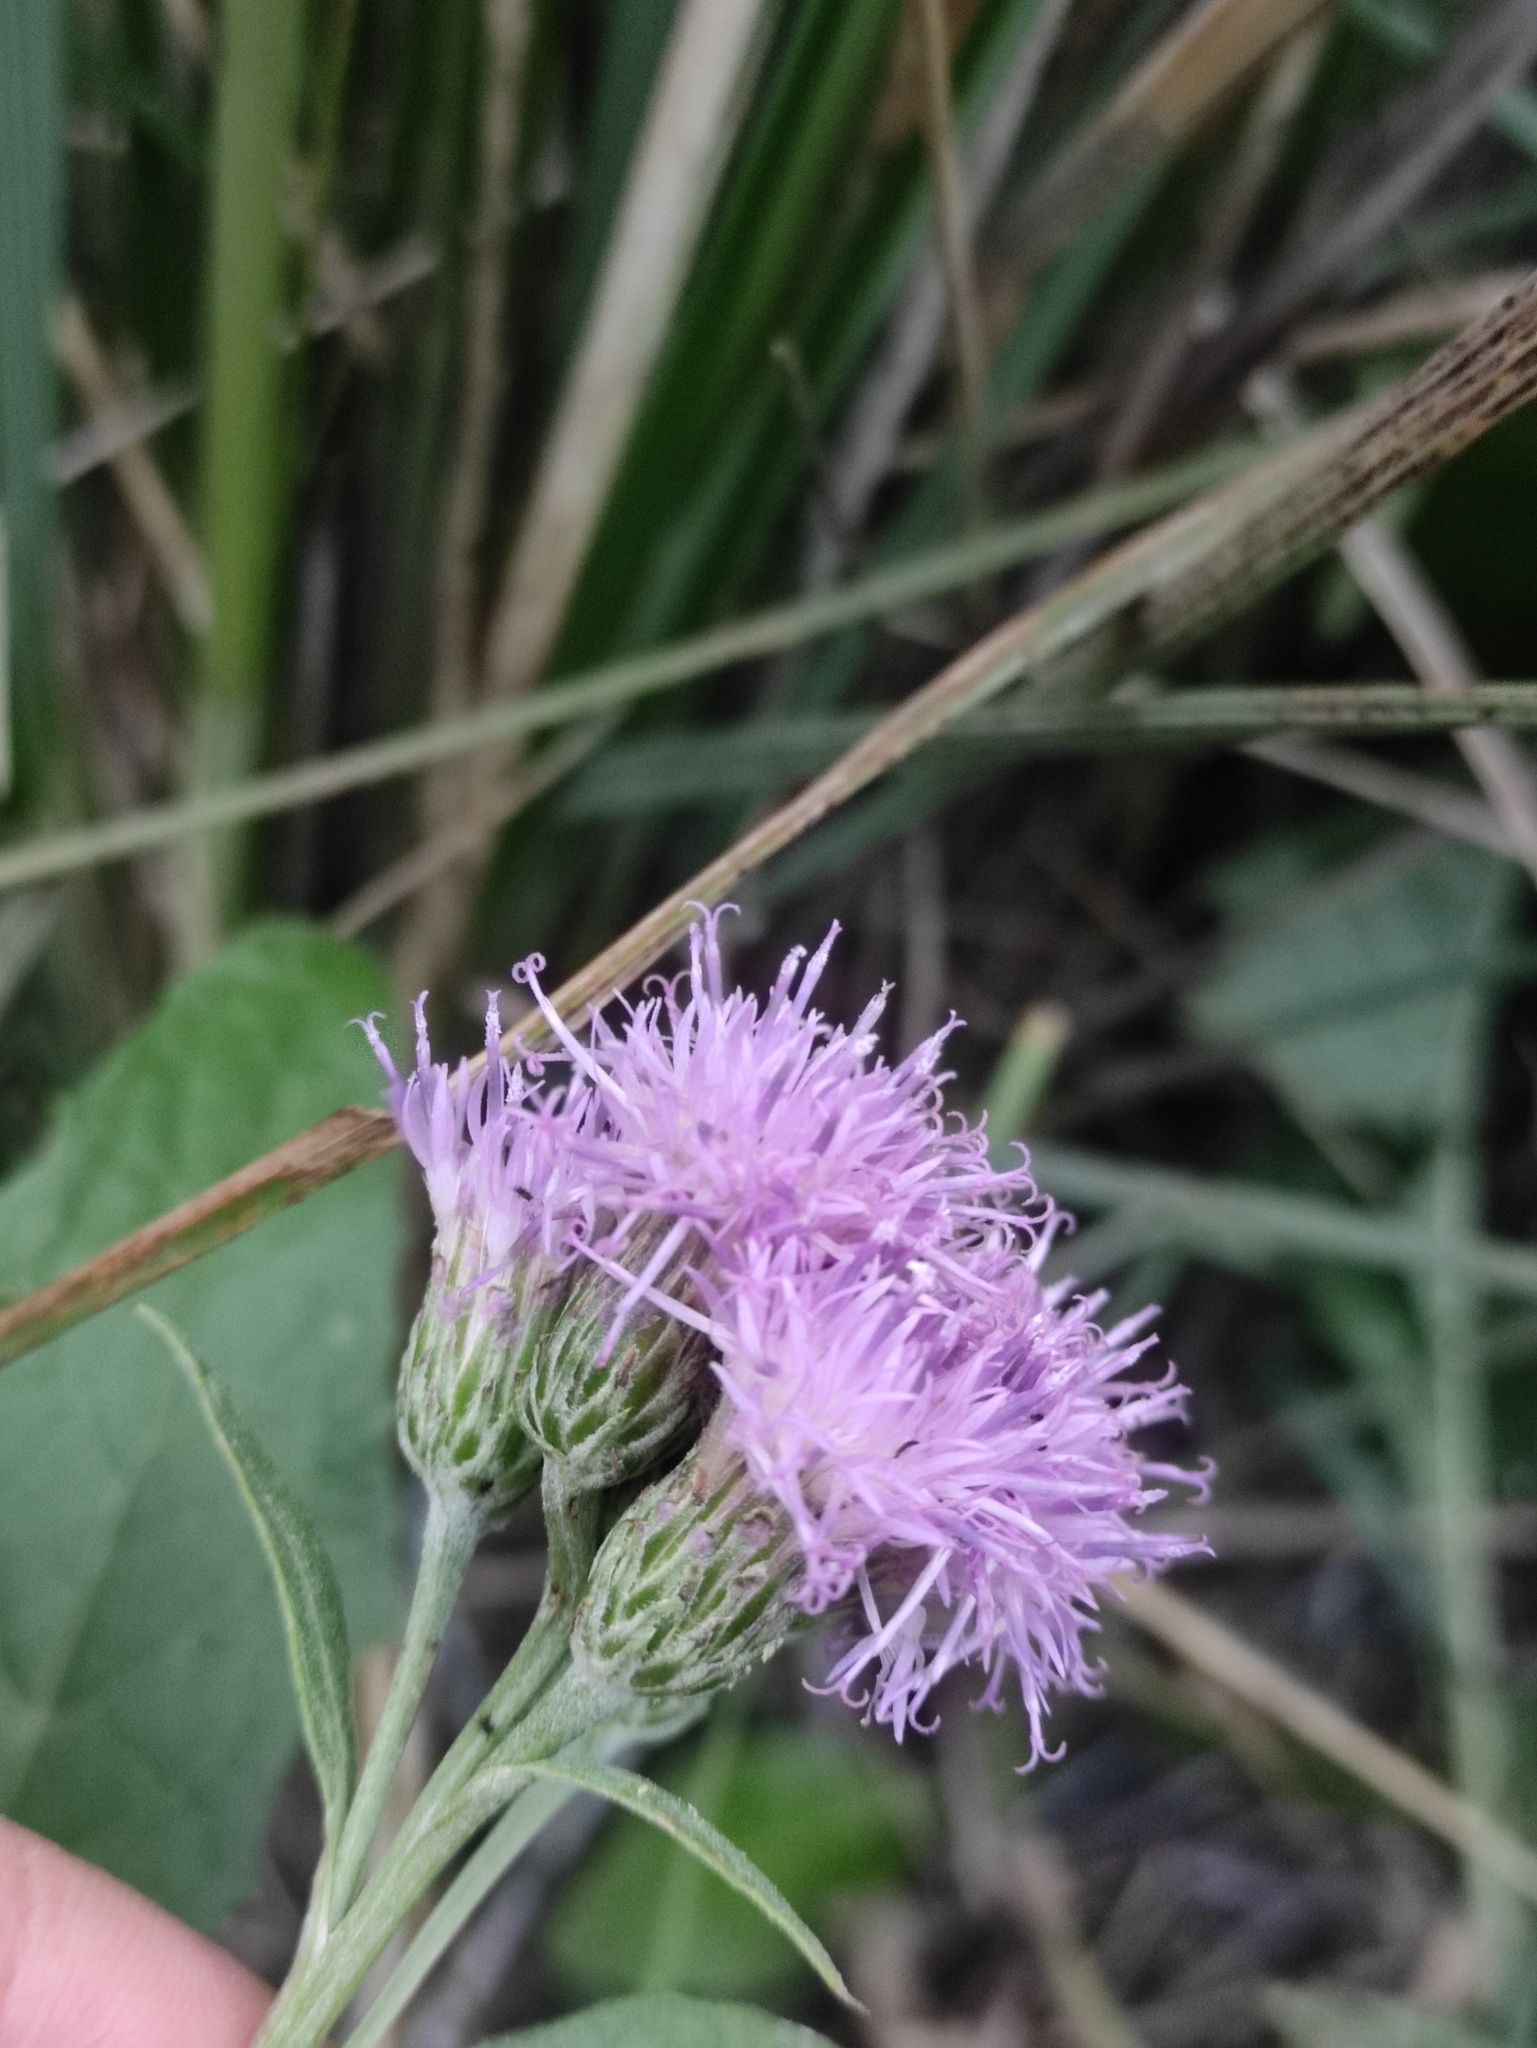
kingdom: Plantae
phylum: Tracheophyta
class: Magnoliopsida
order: Asterales
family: Asteraceae
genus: Saussurea
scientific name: Saussurea amara
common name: Alberta sawwort
